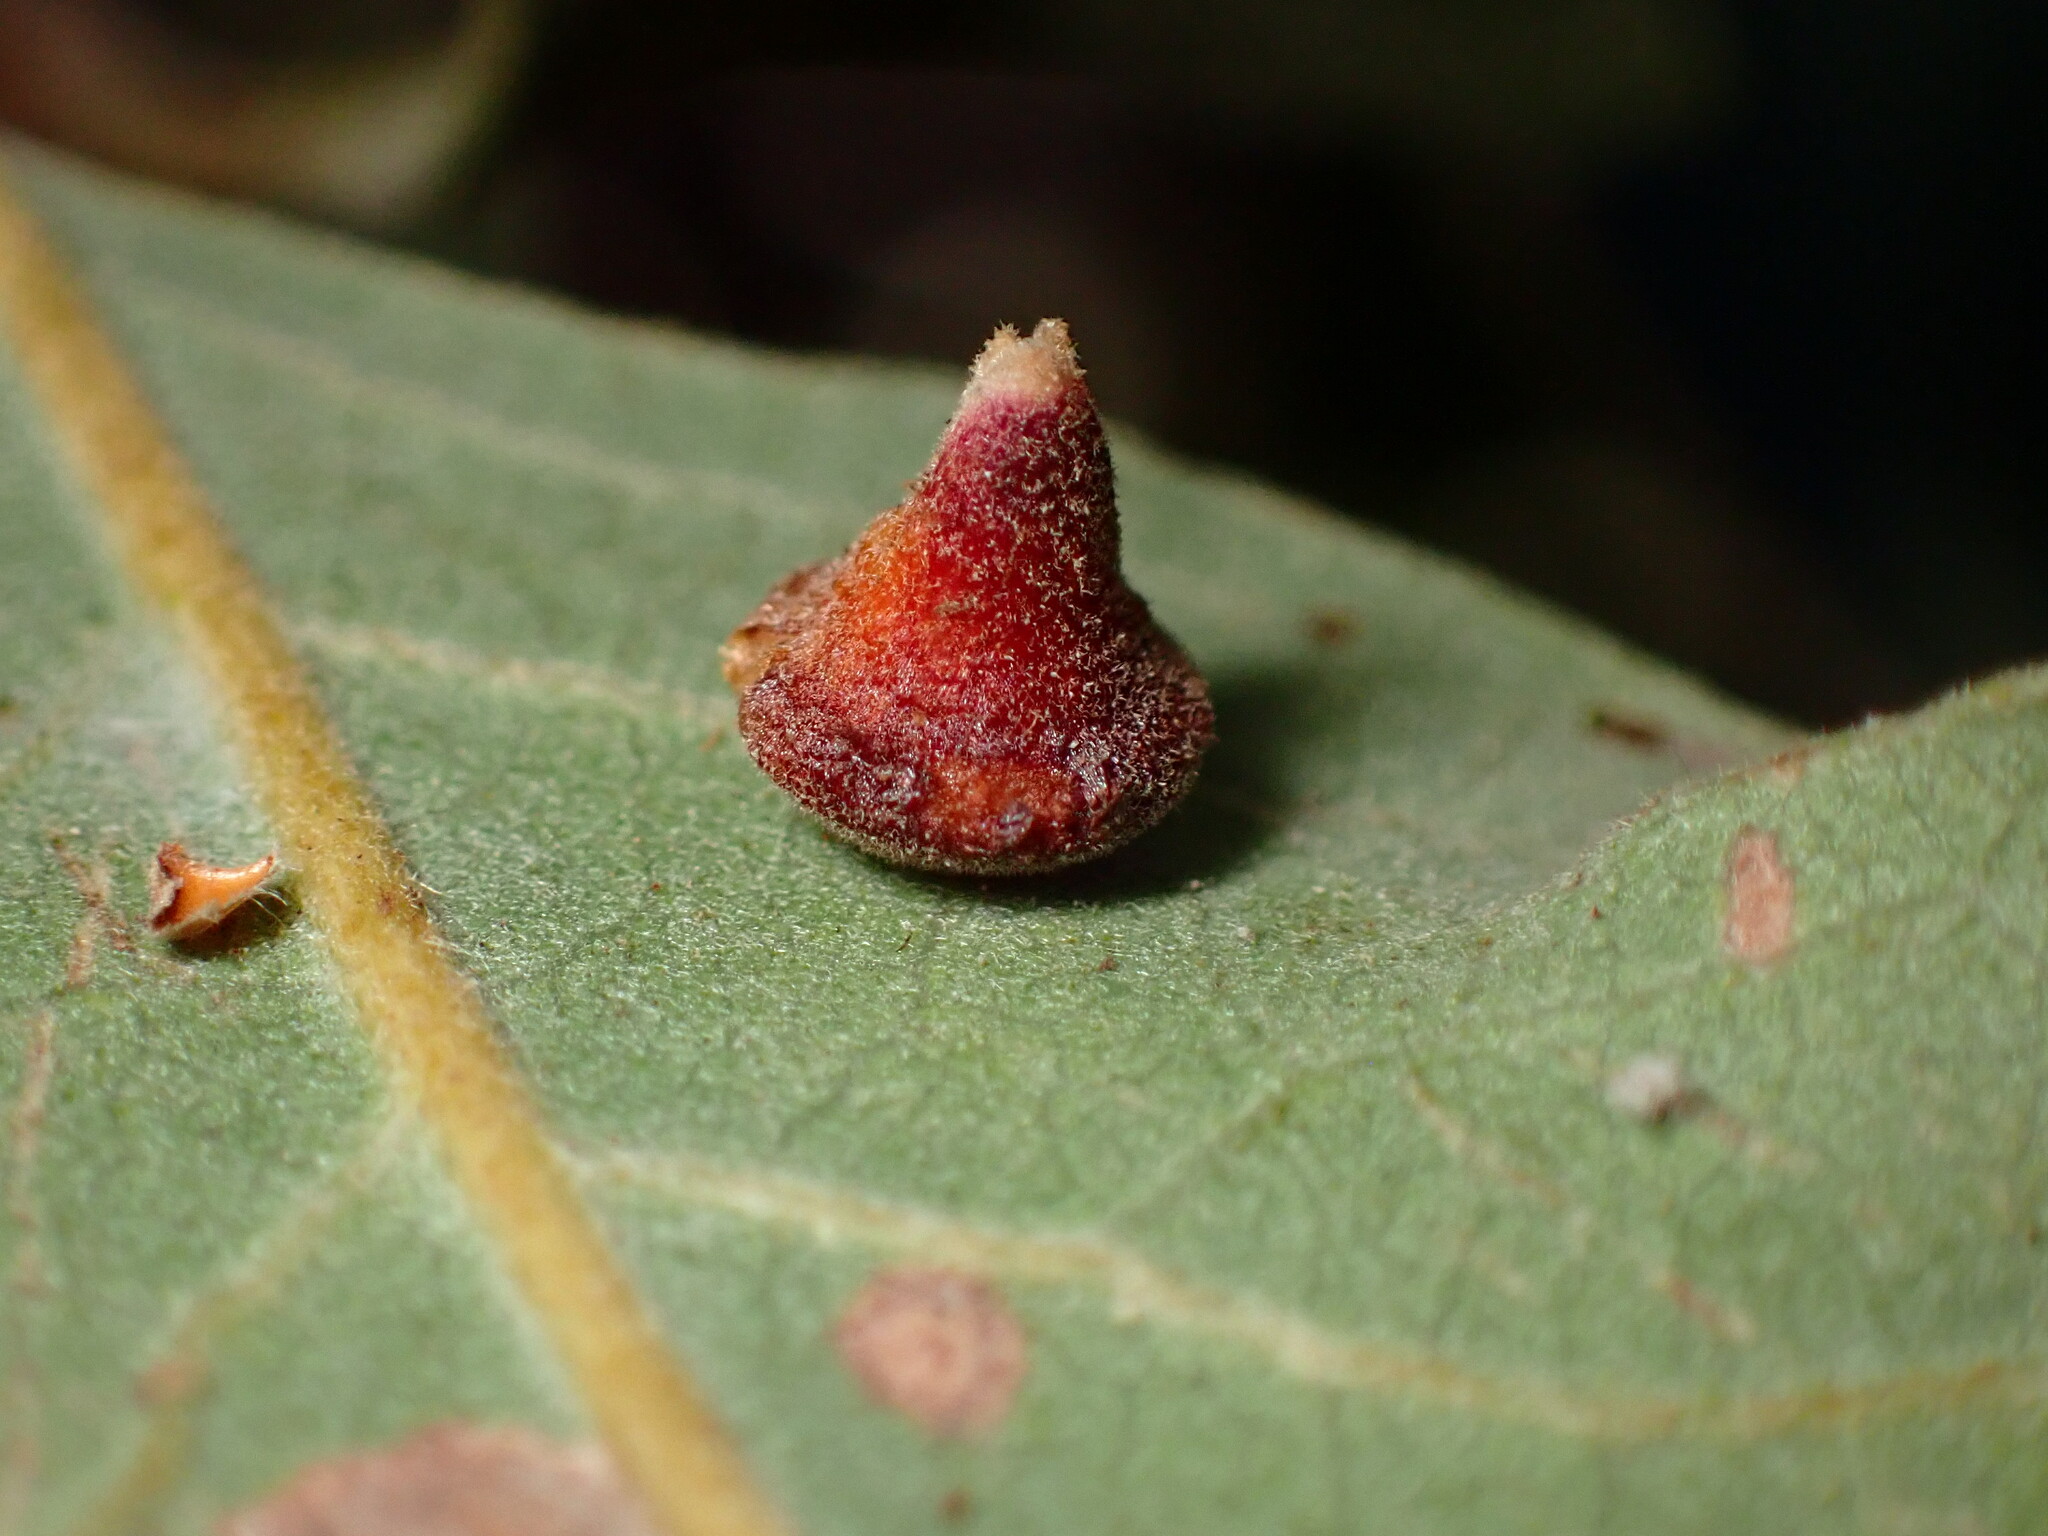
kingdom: Animalia
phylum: Arthropoda
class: Insecta
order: Hymenoptera
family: Cynipidae
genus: Andricus
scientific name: Andricus
